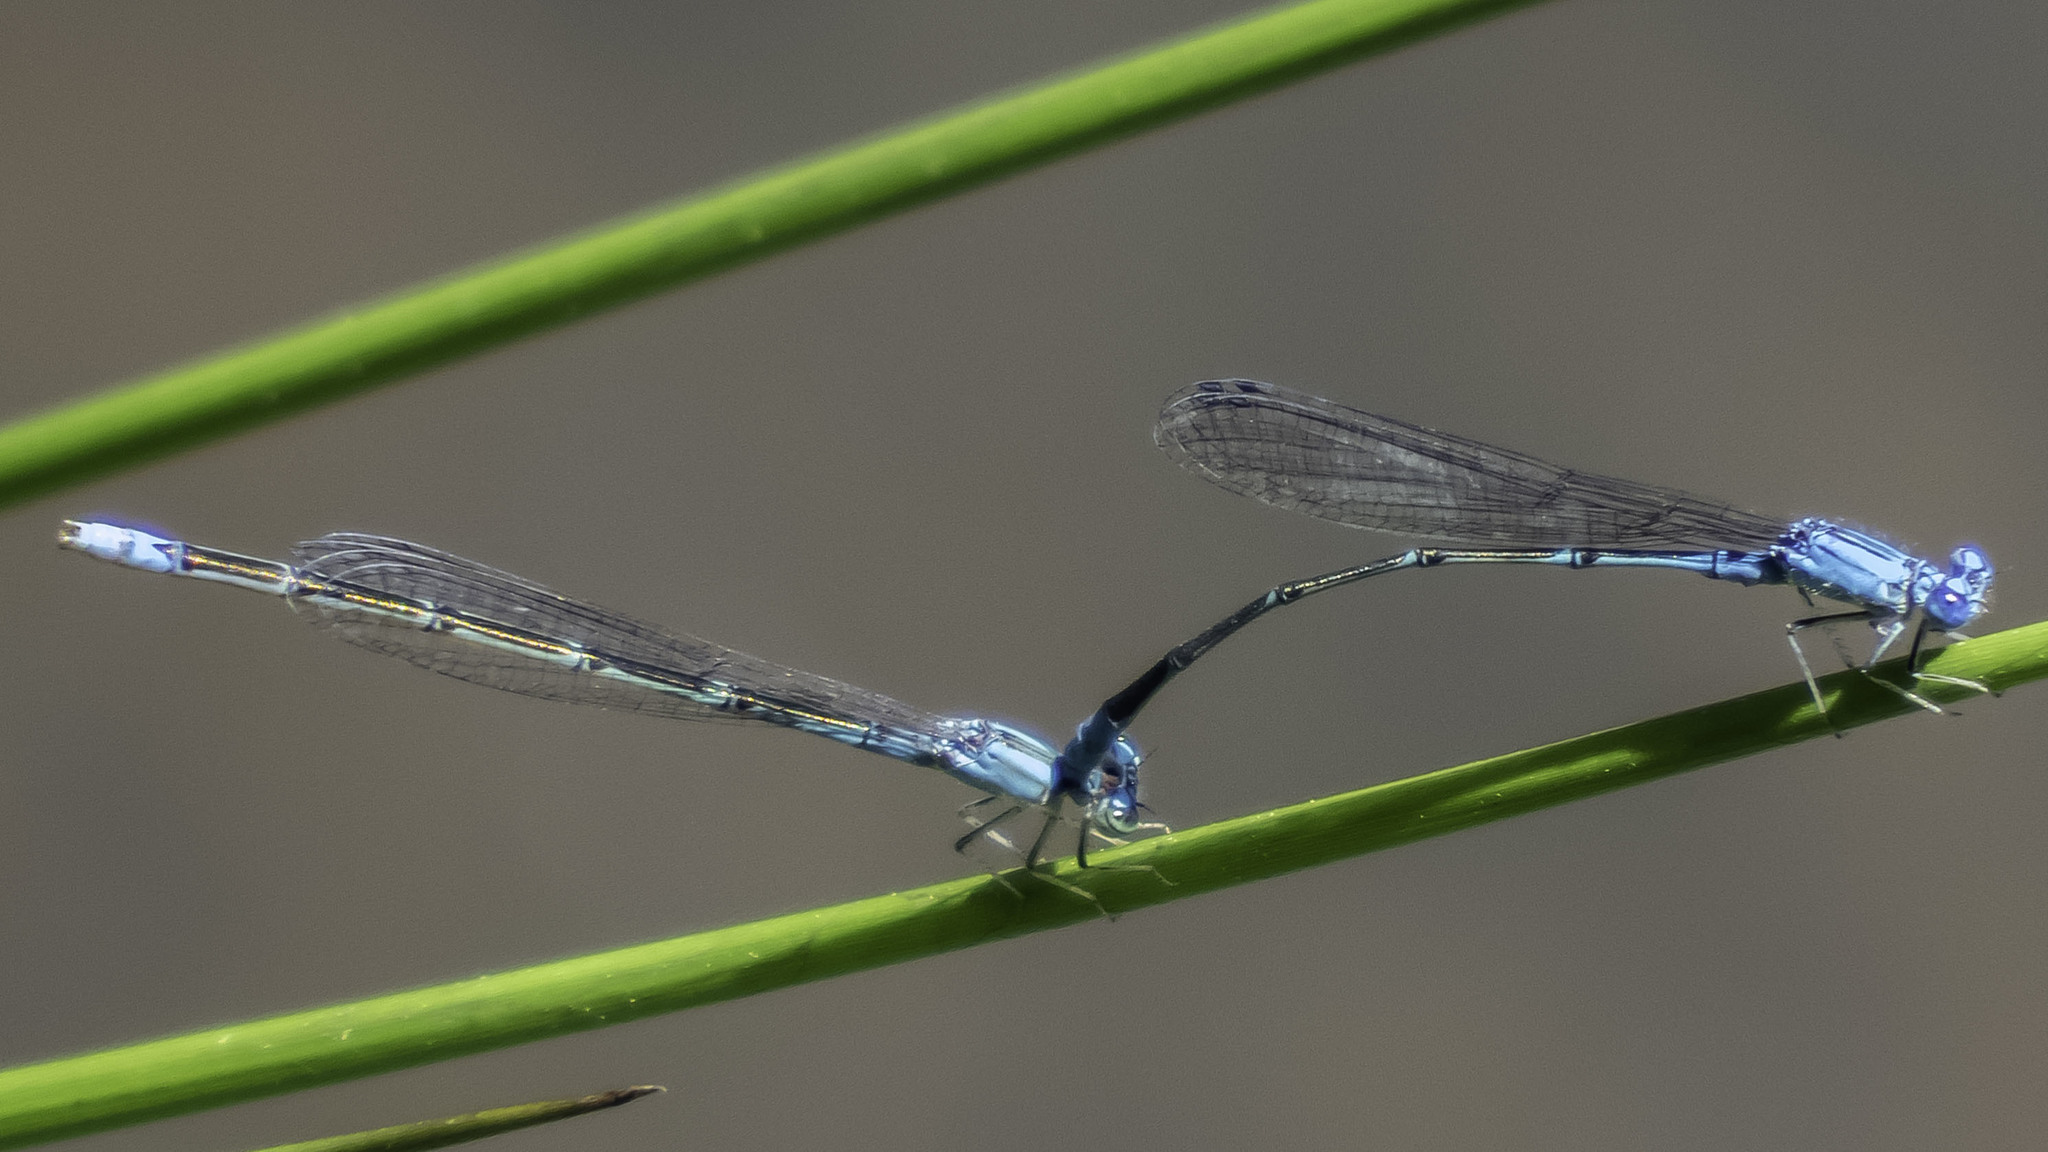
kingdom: Animalia
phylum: Arthropoda
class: Insecta
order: Odonata
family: Coenagrionidae
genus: Enallagma
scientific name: Enallagma traviatum
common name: Slender bluet
